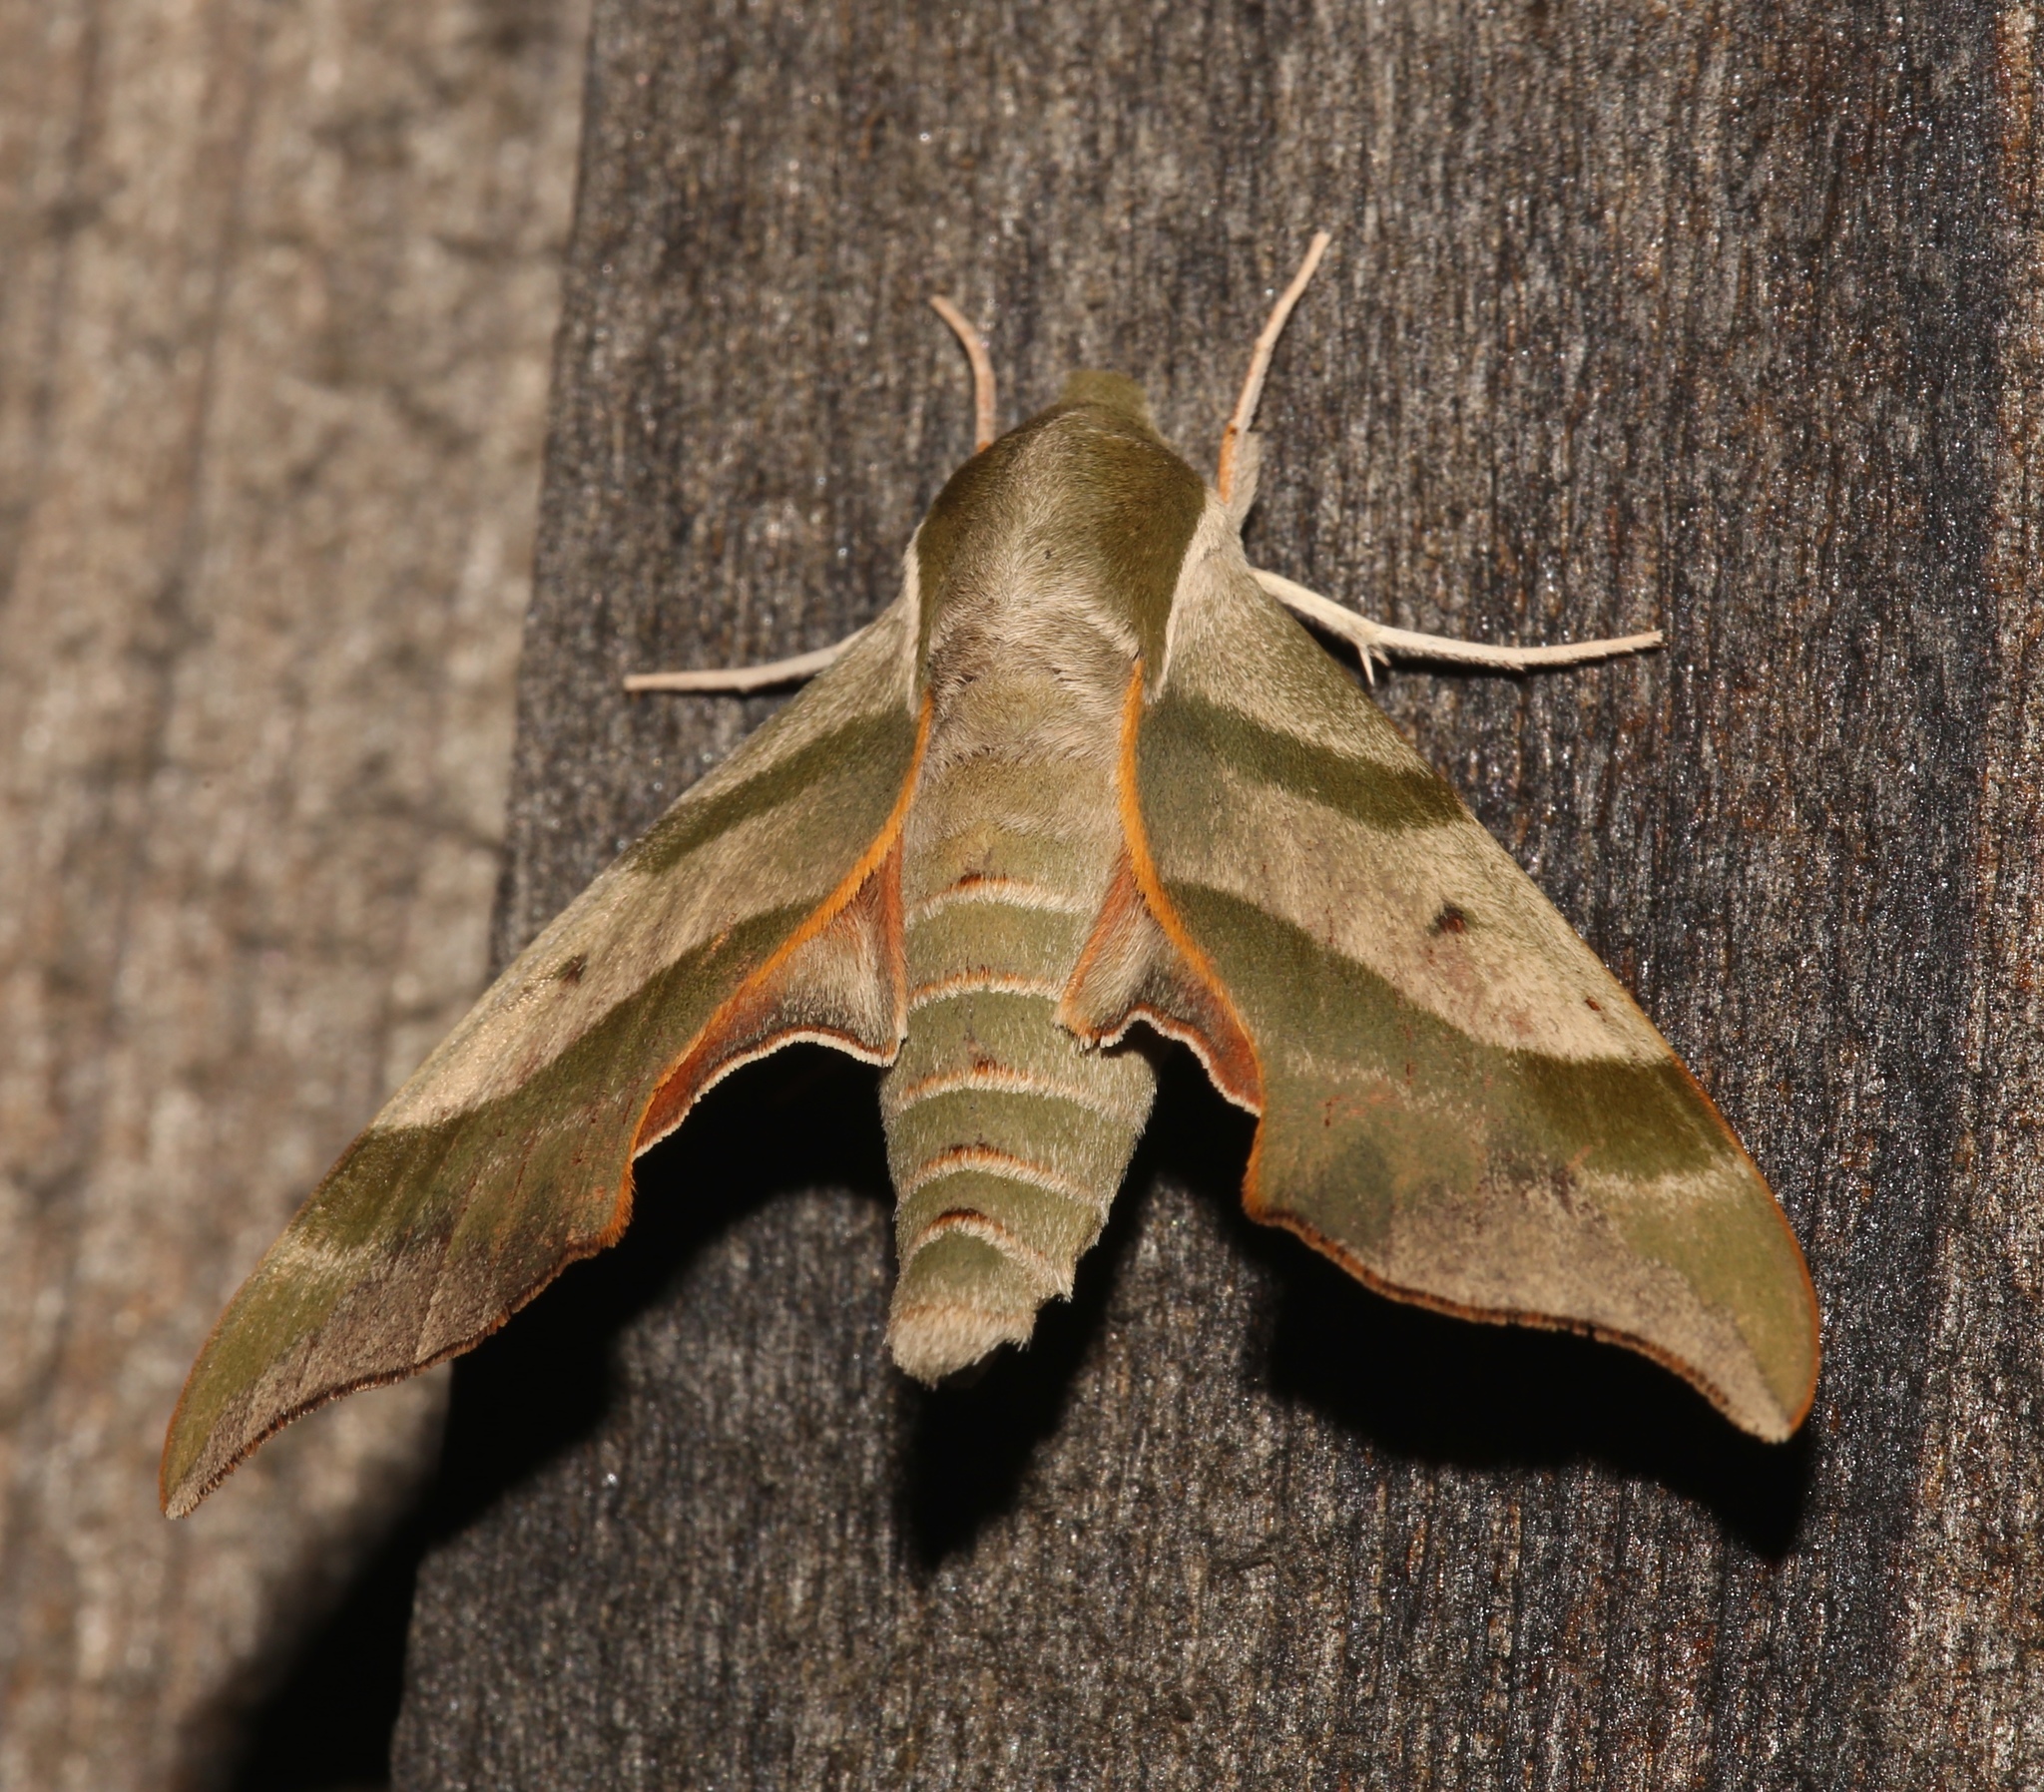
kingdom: Animalia
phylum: Arthropoda
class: Insecta
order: Lepidoptera
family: Sphingidae
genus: Darapsa
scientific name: Darapsa myron
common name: Hog sphinx
